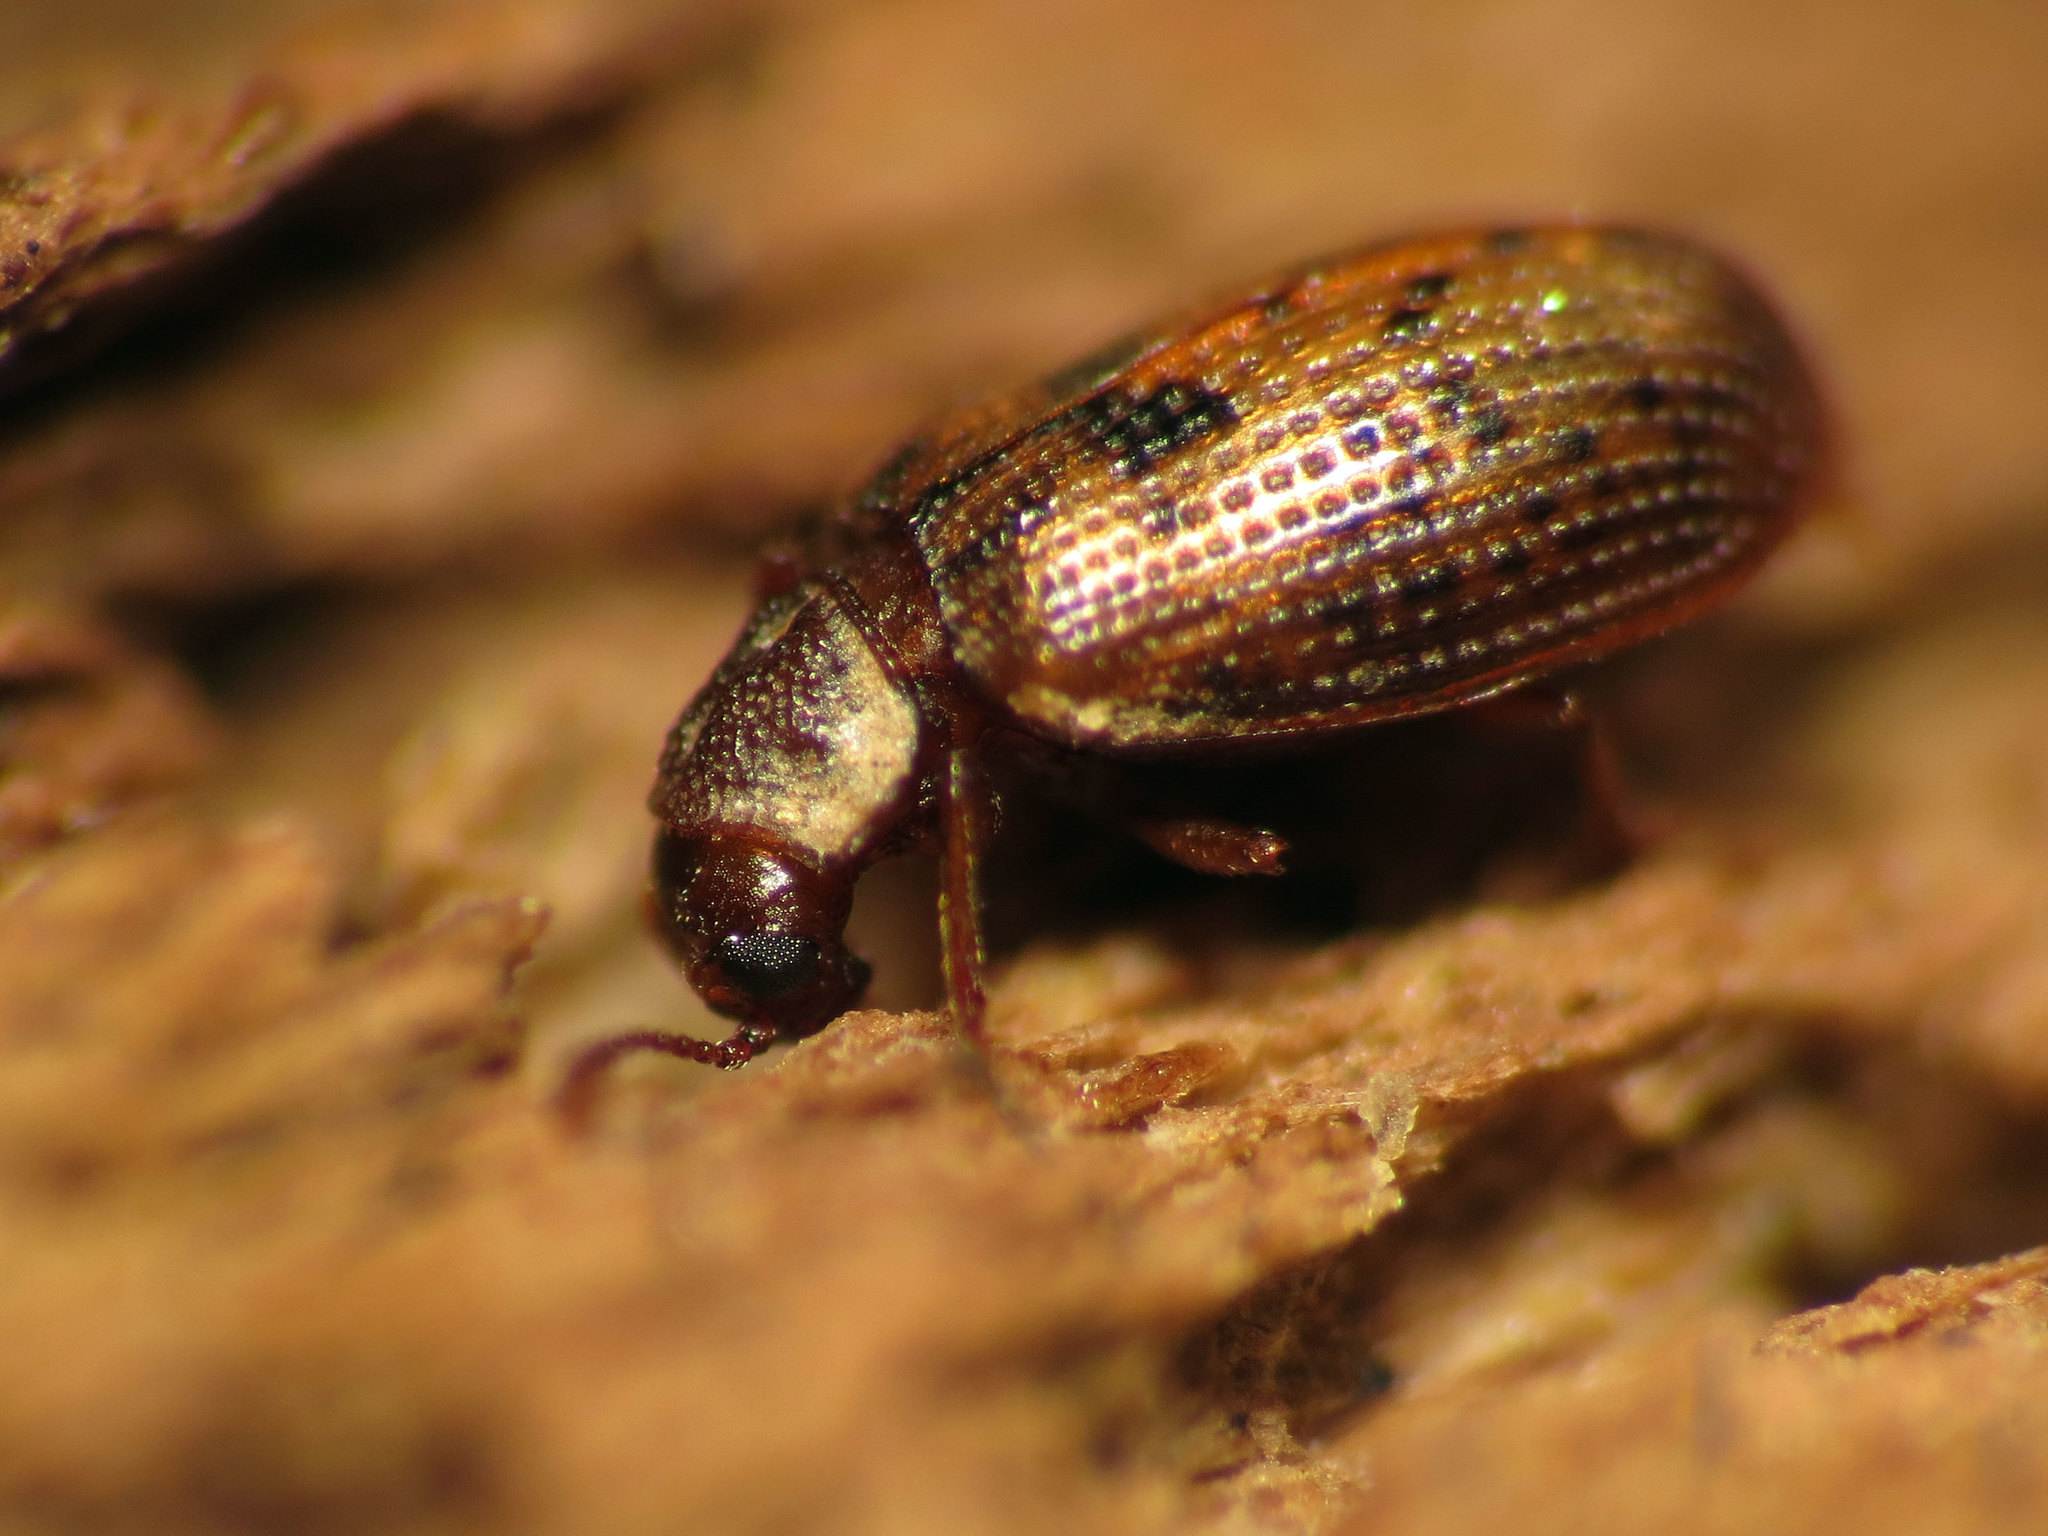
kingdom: Animalia
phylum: Arthropoda
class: Insecta
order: Coleoptera
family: Derodontidae
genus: Derodontus
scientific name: Derodontus esotericus
